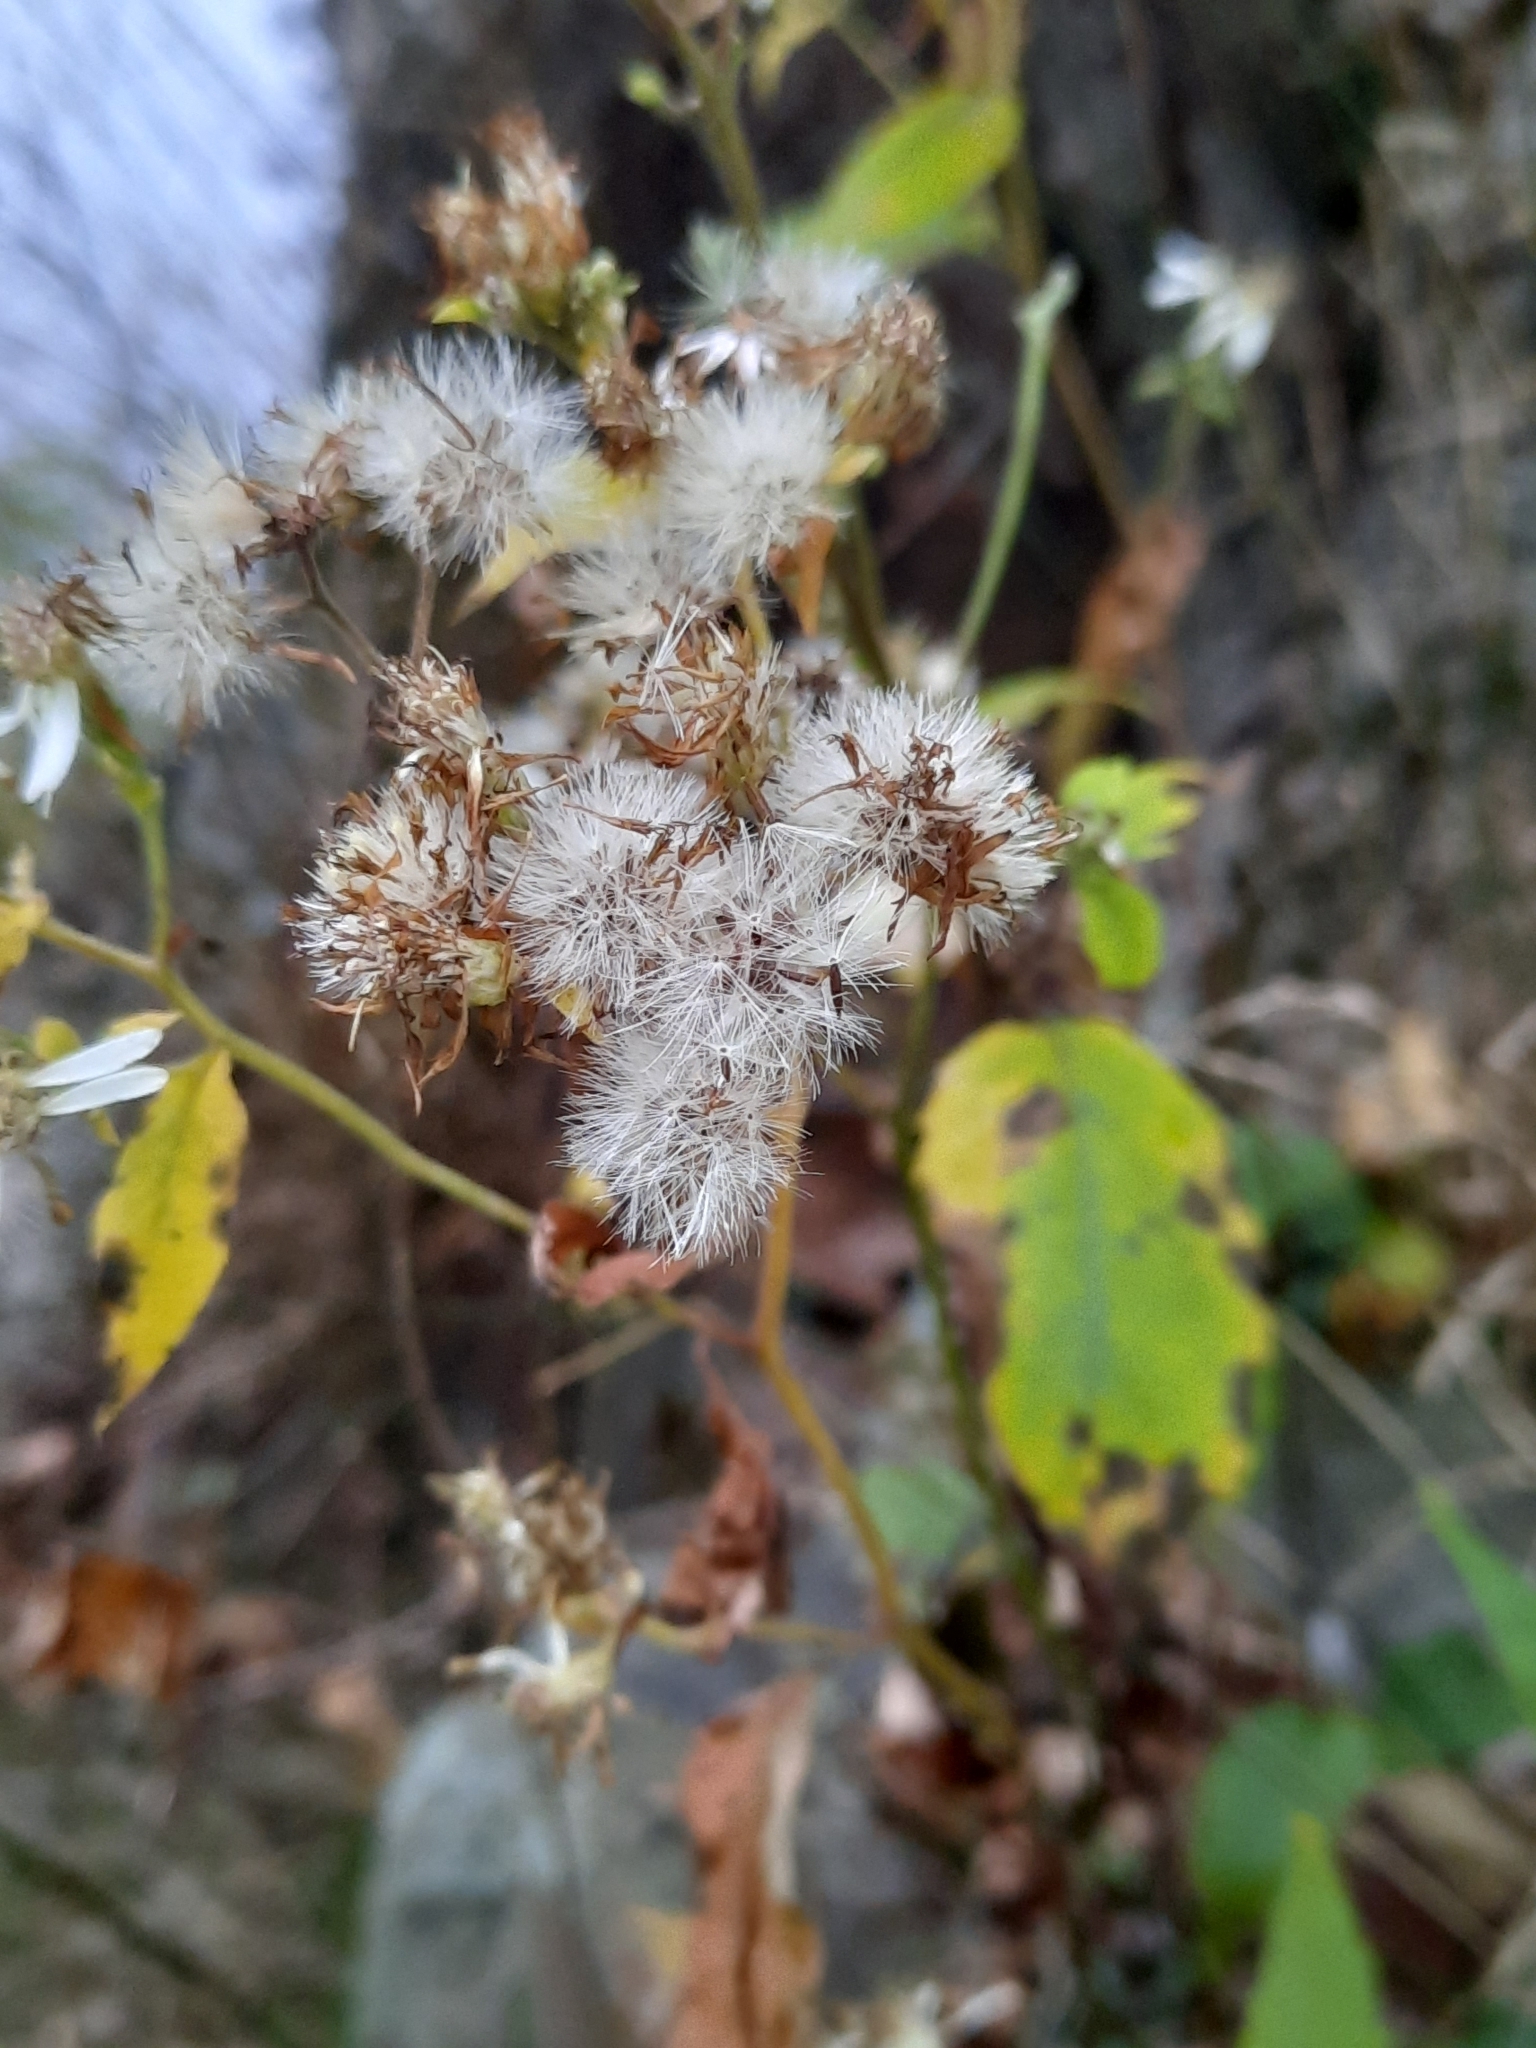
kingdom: Plantae
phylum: Tracheophyta
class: Magnoliopsida
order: Asterales
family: Asteraceae
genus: Eurybia
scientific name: Eurybia divaricata
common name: White wood aster
